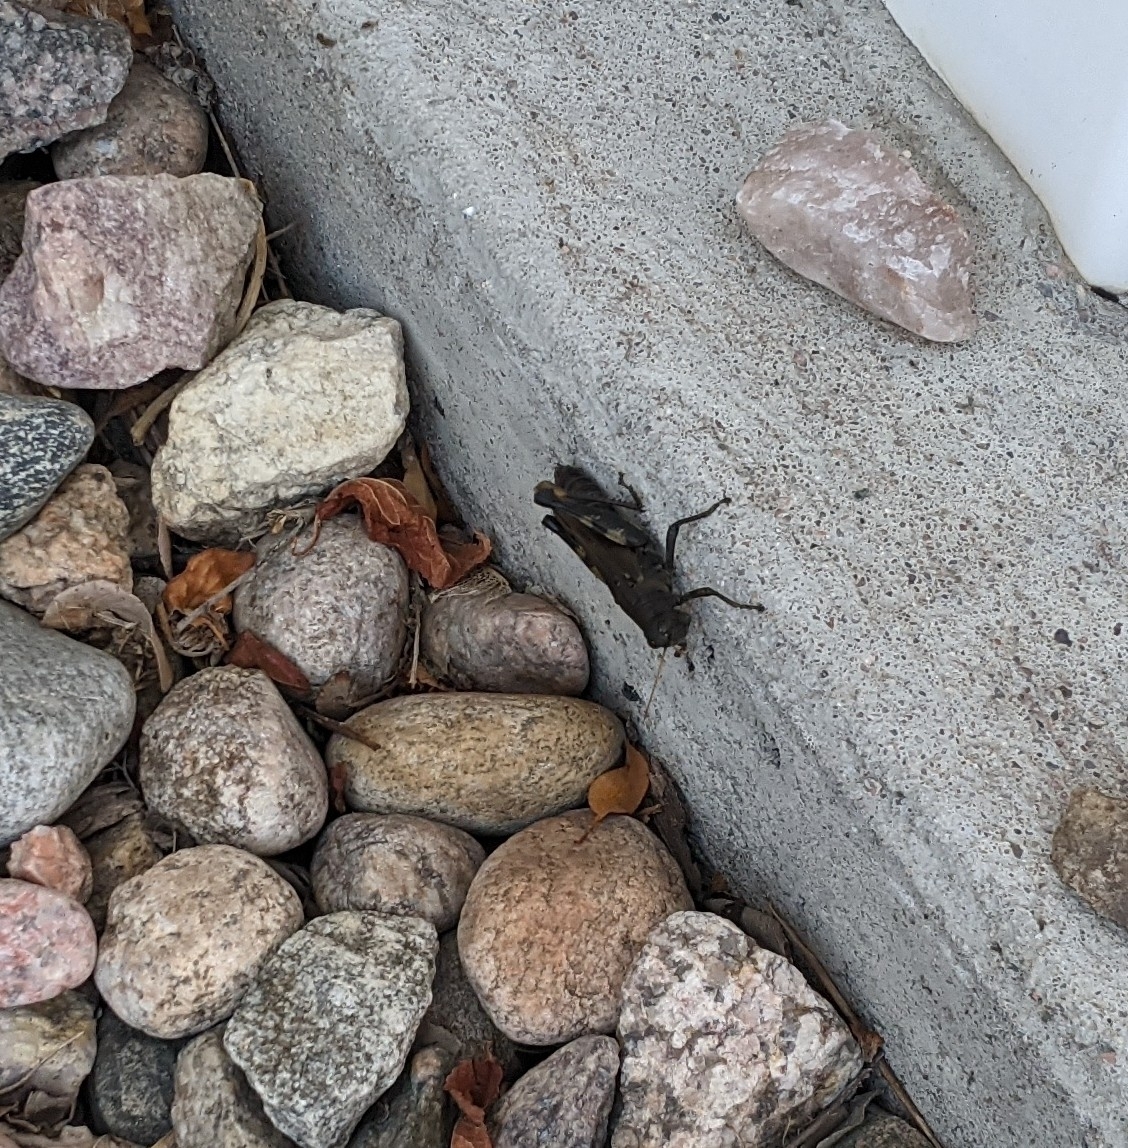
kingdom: Animalia
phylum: Arthropoda
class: Insecta
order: Orthoptera
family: Acrididae
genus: Melanoplus
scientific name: Melanoplus differentialis
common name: Differential grasshopper
